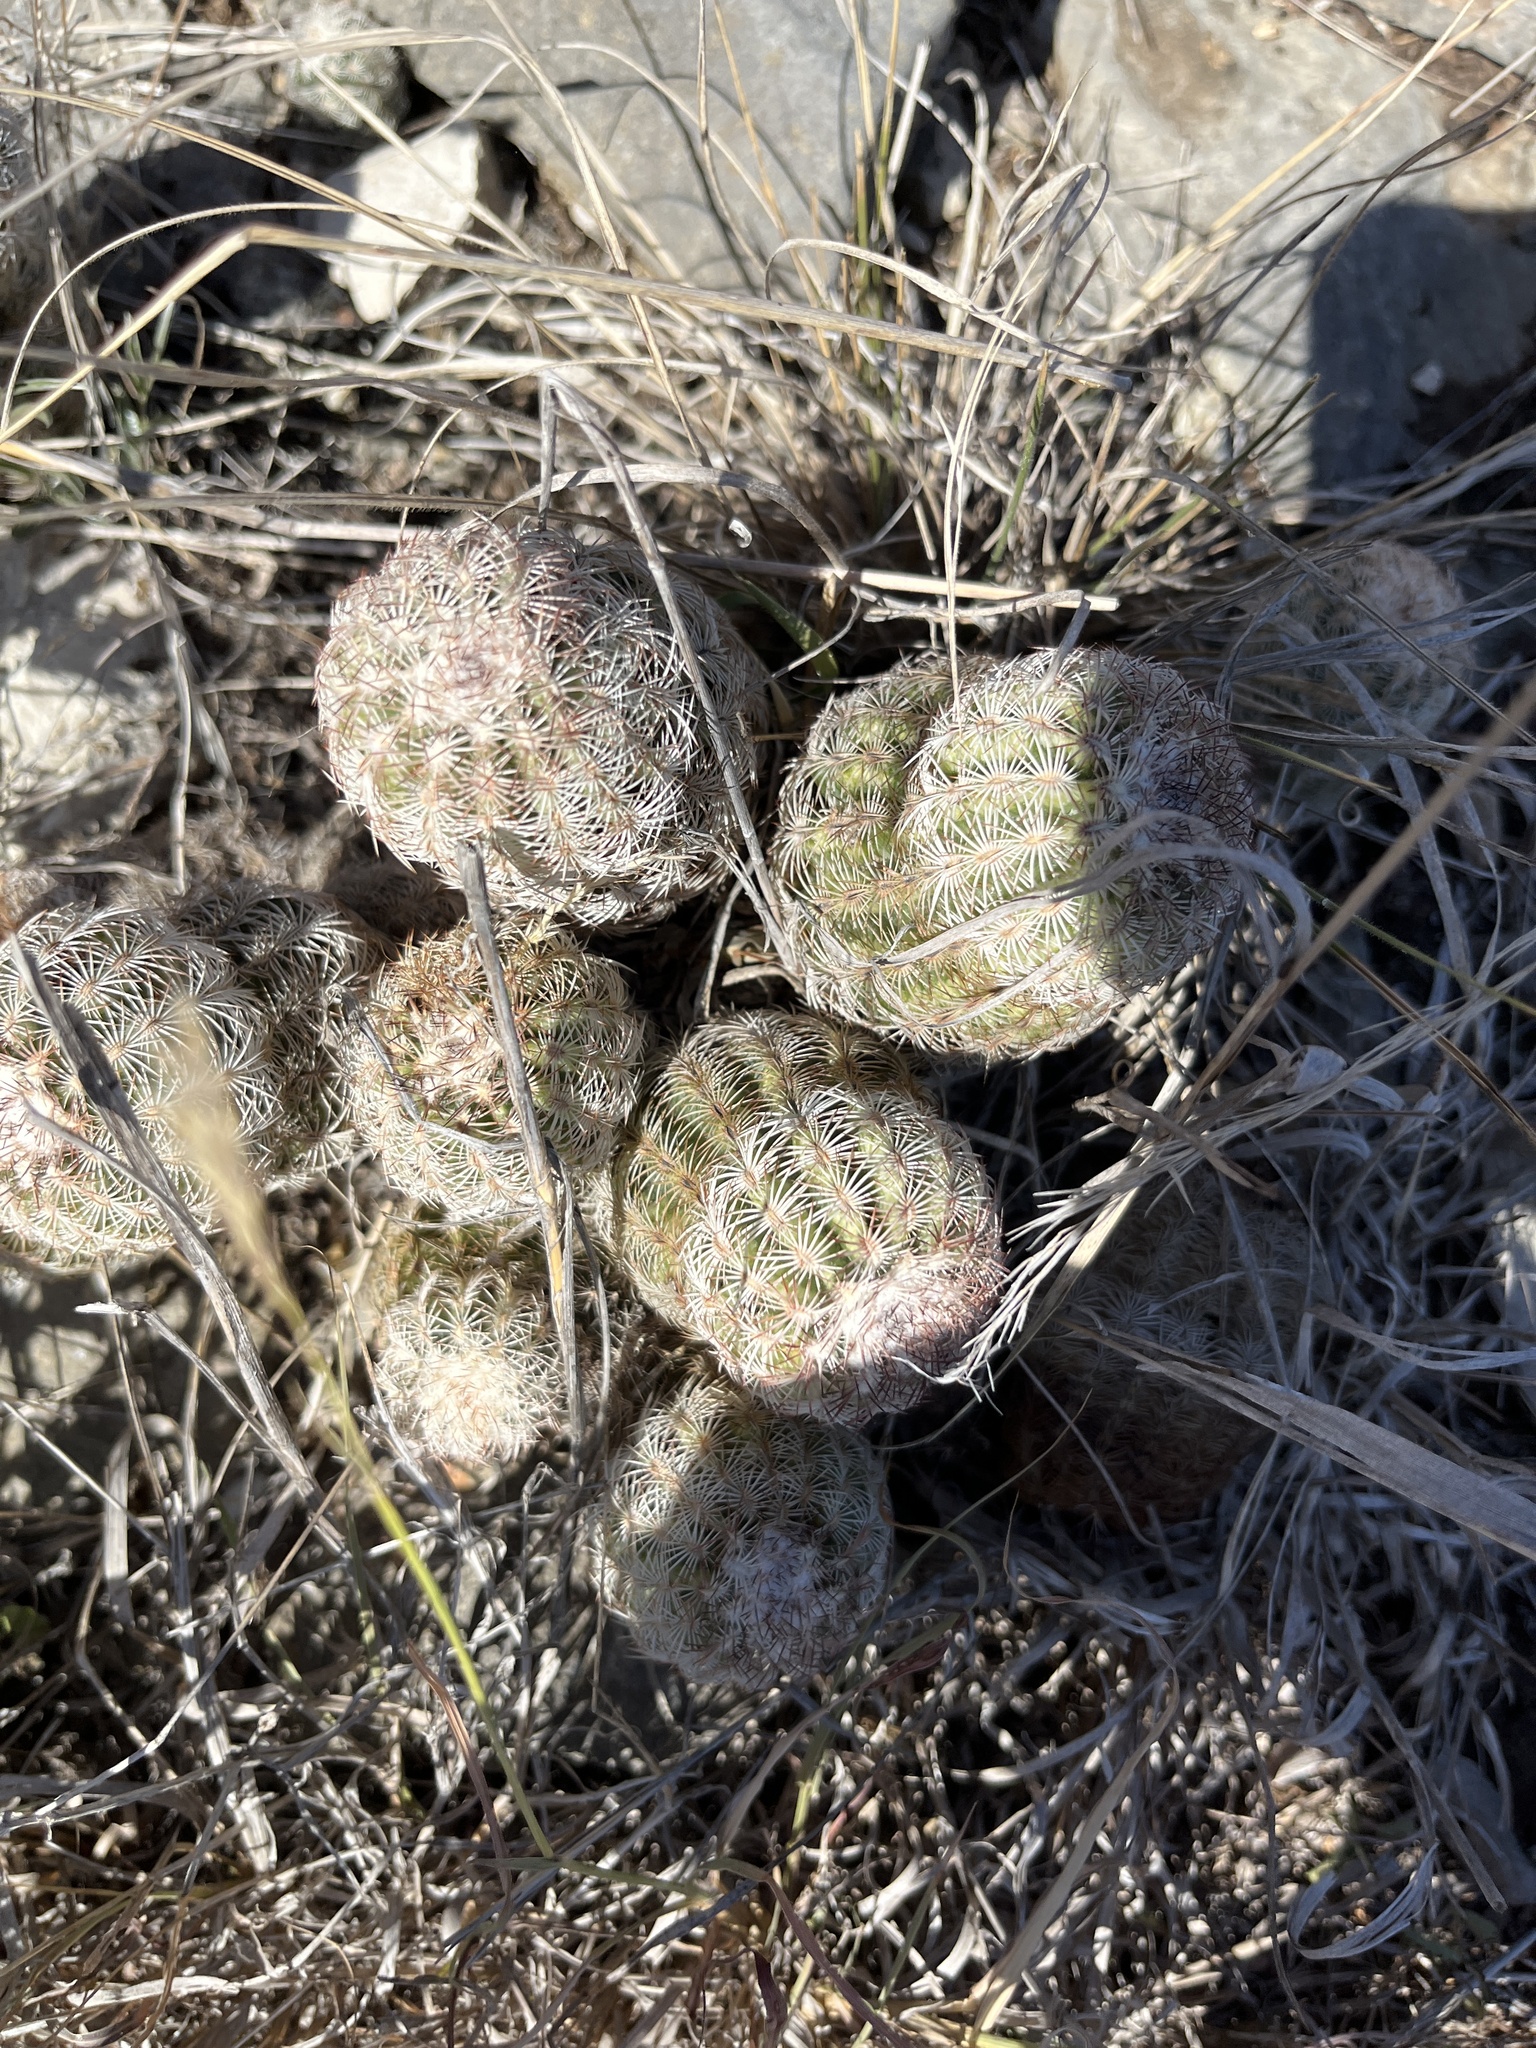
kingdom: Plantae
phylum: Tracheophyta
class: Magnoliopsida
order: Caryophyllales
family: Cactaceae
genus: Echinocereus
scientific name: Echinocereus reichenbachii
